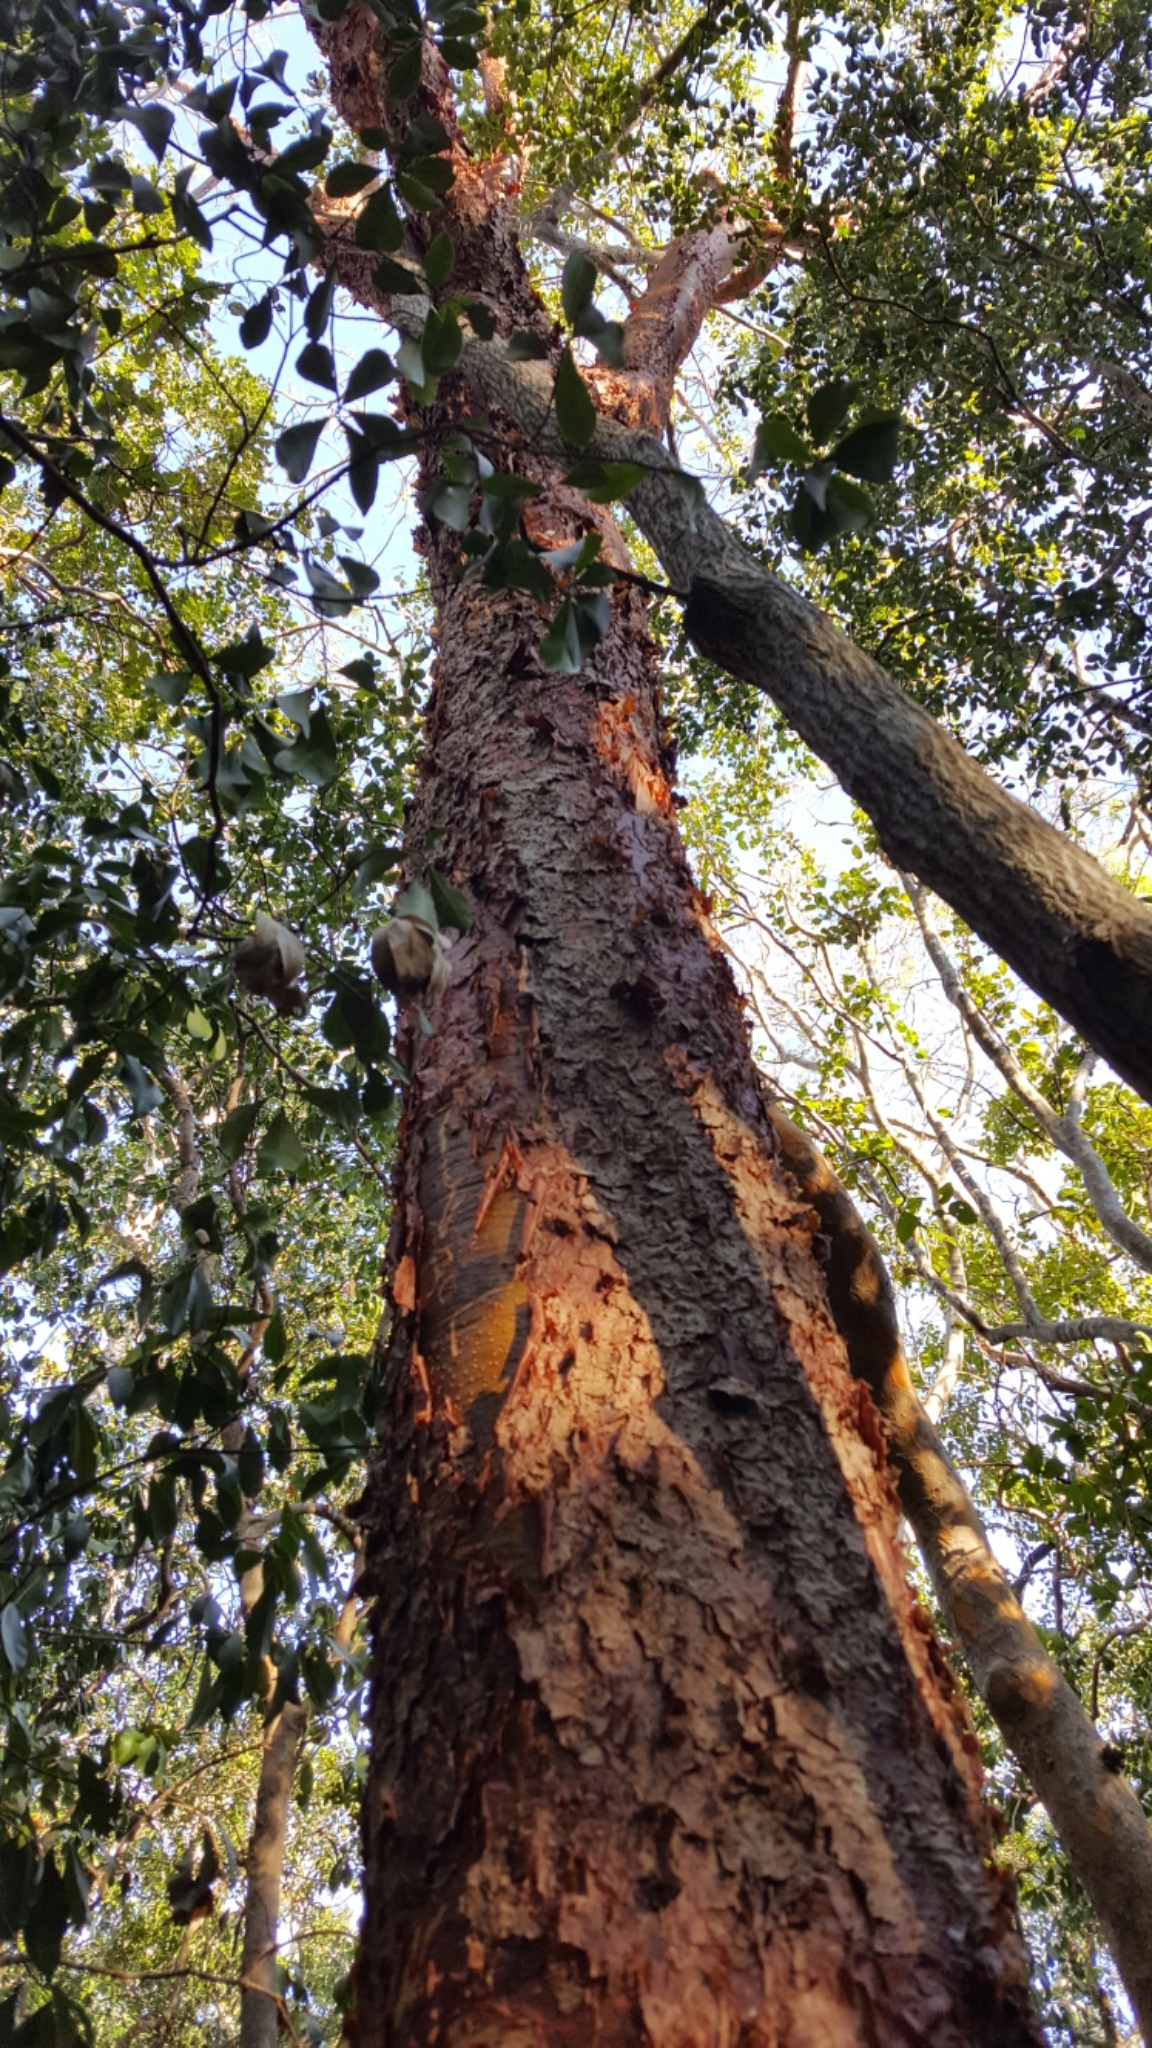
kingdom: Plantae
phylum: Tracheophyta
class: Magnoliopsida
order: Sapindales
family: Burseraceae
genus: Bursera
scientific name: Bursera simaruba
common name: Turpentine tree
